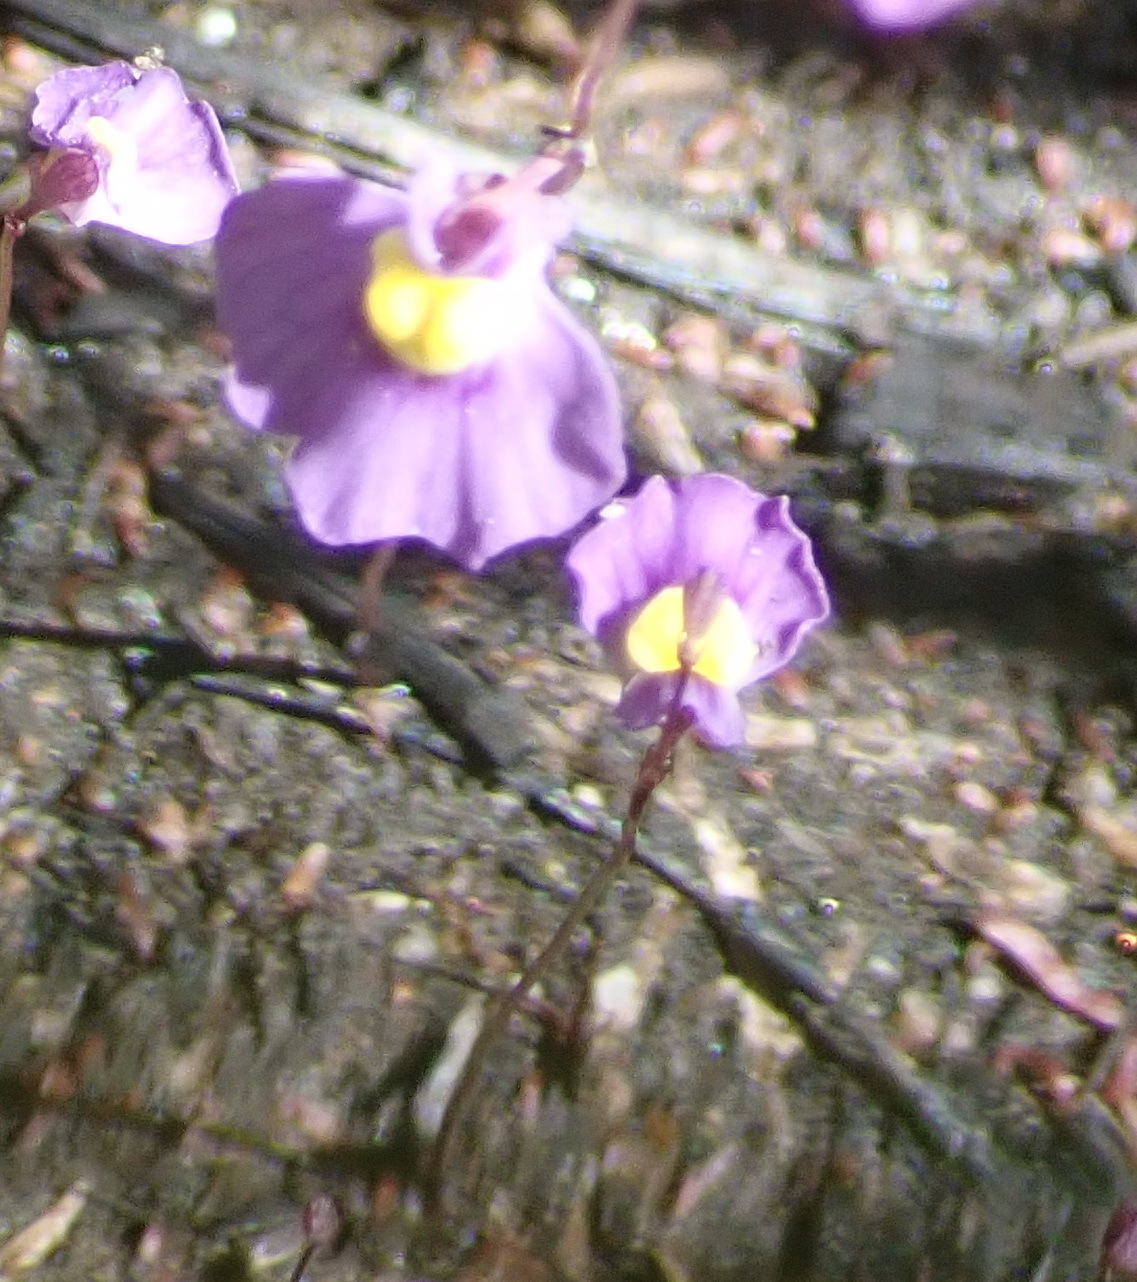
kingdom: Plantae
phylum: Tracheophyta
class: Magnoliopsida
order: Lamiales
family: Lentibulariaceae
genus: Utricularia
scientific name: Utricularia welwitschii
